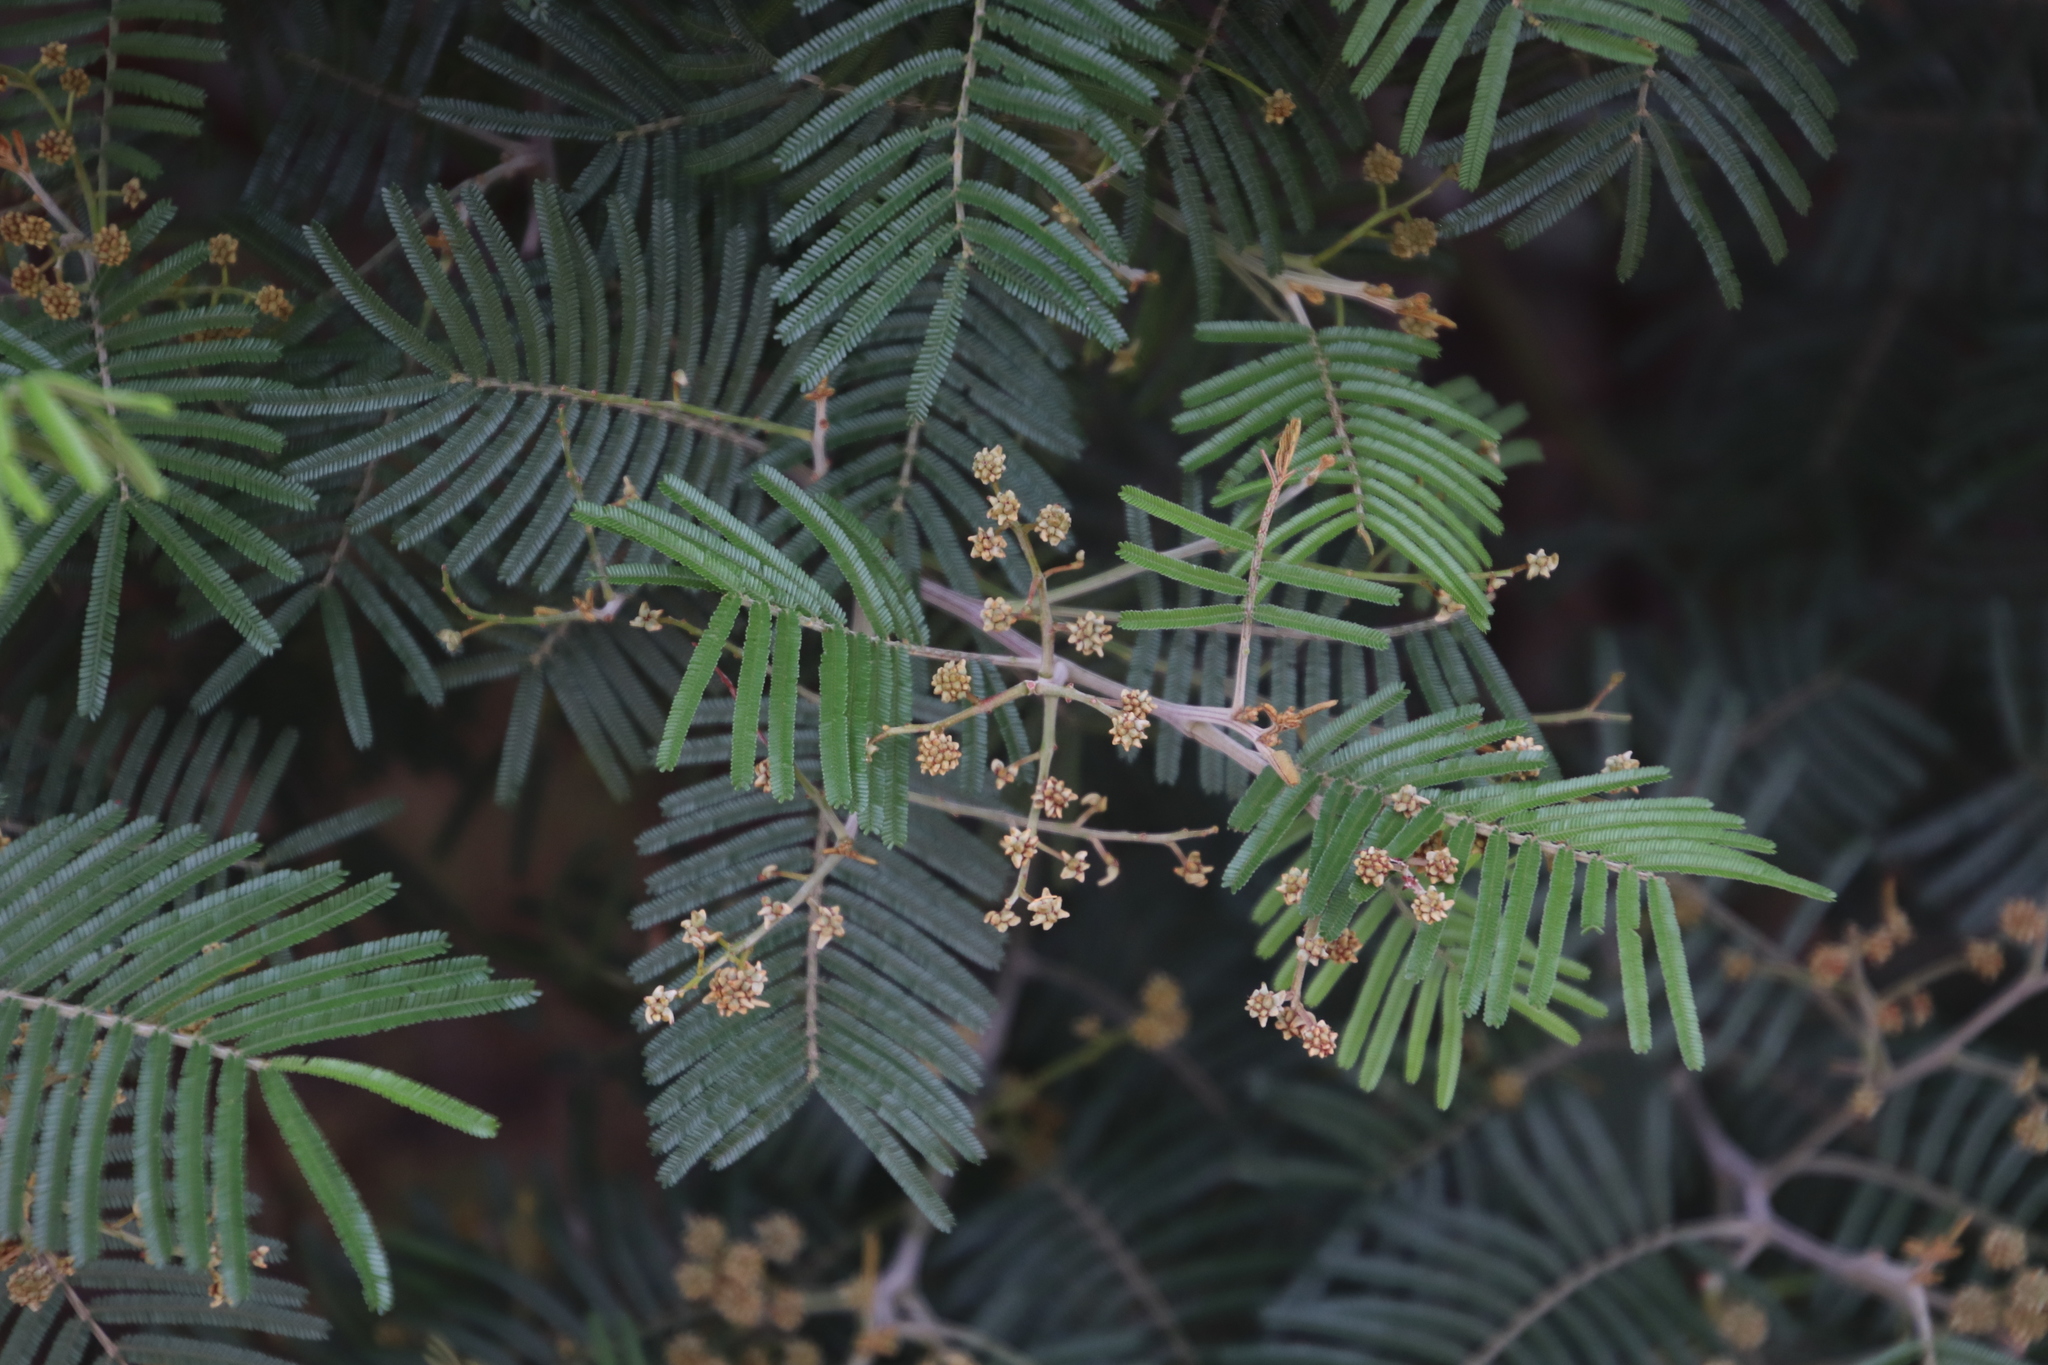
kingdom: Plantae
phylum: Tracheophyta
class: Magnoliopsida
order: Fabales
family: Fabaceae
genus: Acacia
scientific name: Acacia mearnsii
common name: Black wattle
